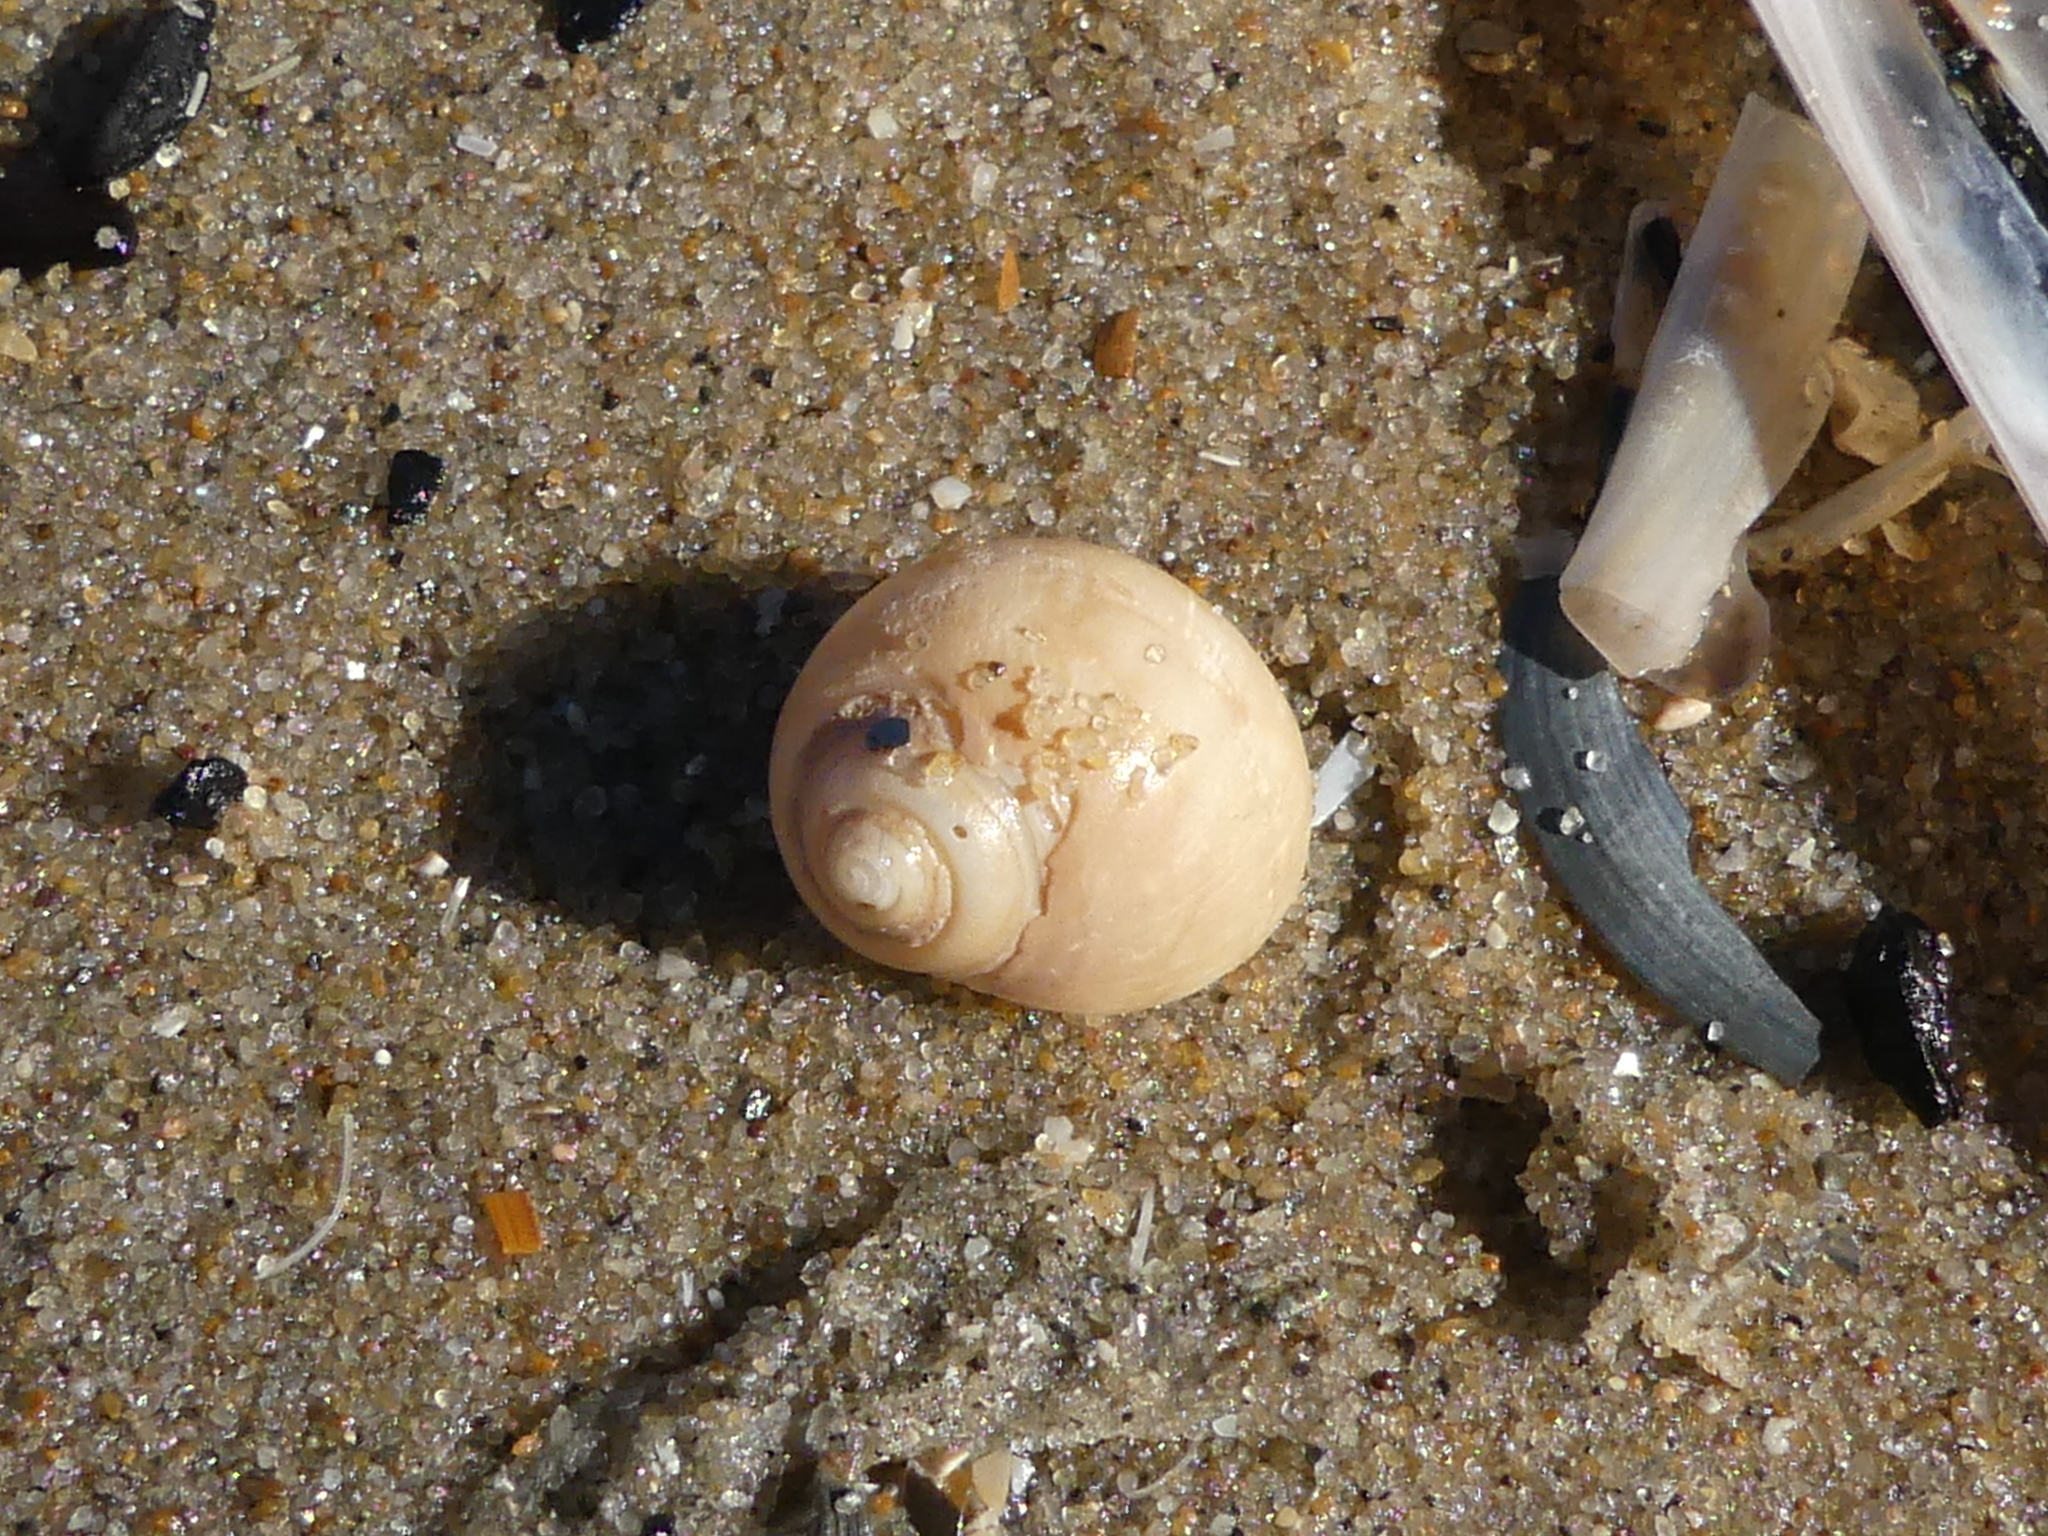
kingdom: Animalia
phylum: Mollusca
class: Gastropoda
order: Littorinimorpha
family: Naticidae
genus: Euspira
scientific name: Euspira nitida
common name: Alder's necklace shell
